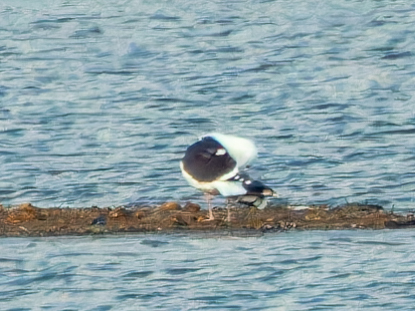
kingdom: Animalia
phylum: Chordata
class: Aves
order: Charadriiformes
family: Laridae
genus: Larus
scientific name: Larus marinus
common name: Great black-backed gull
